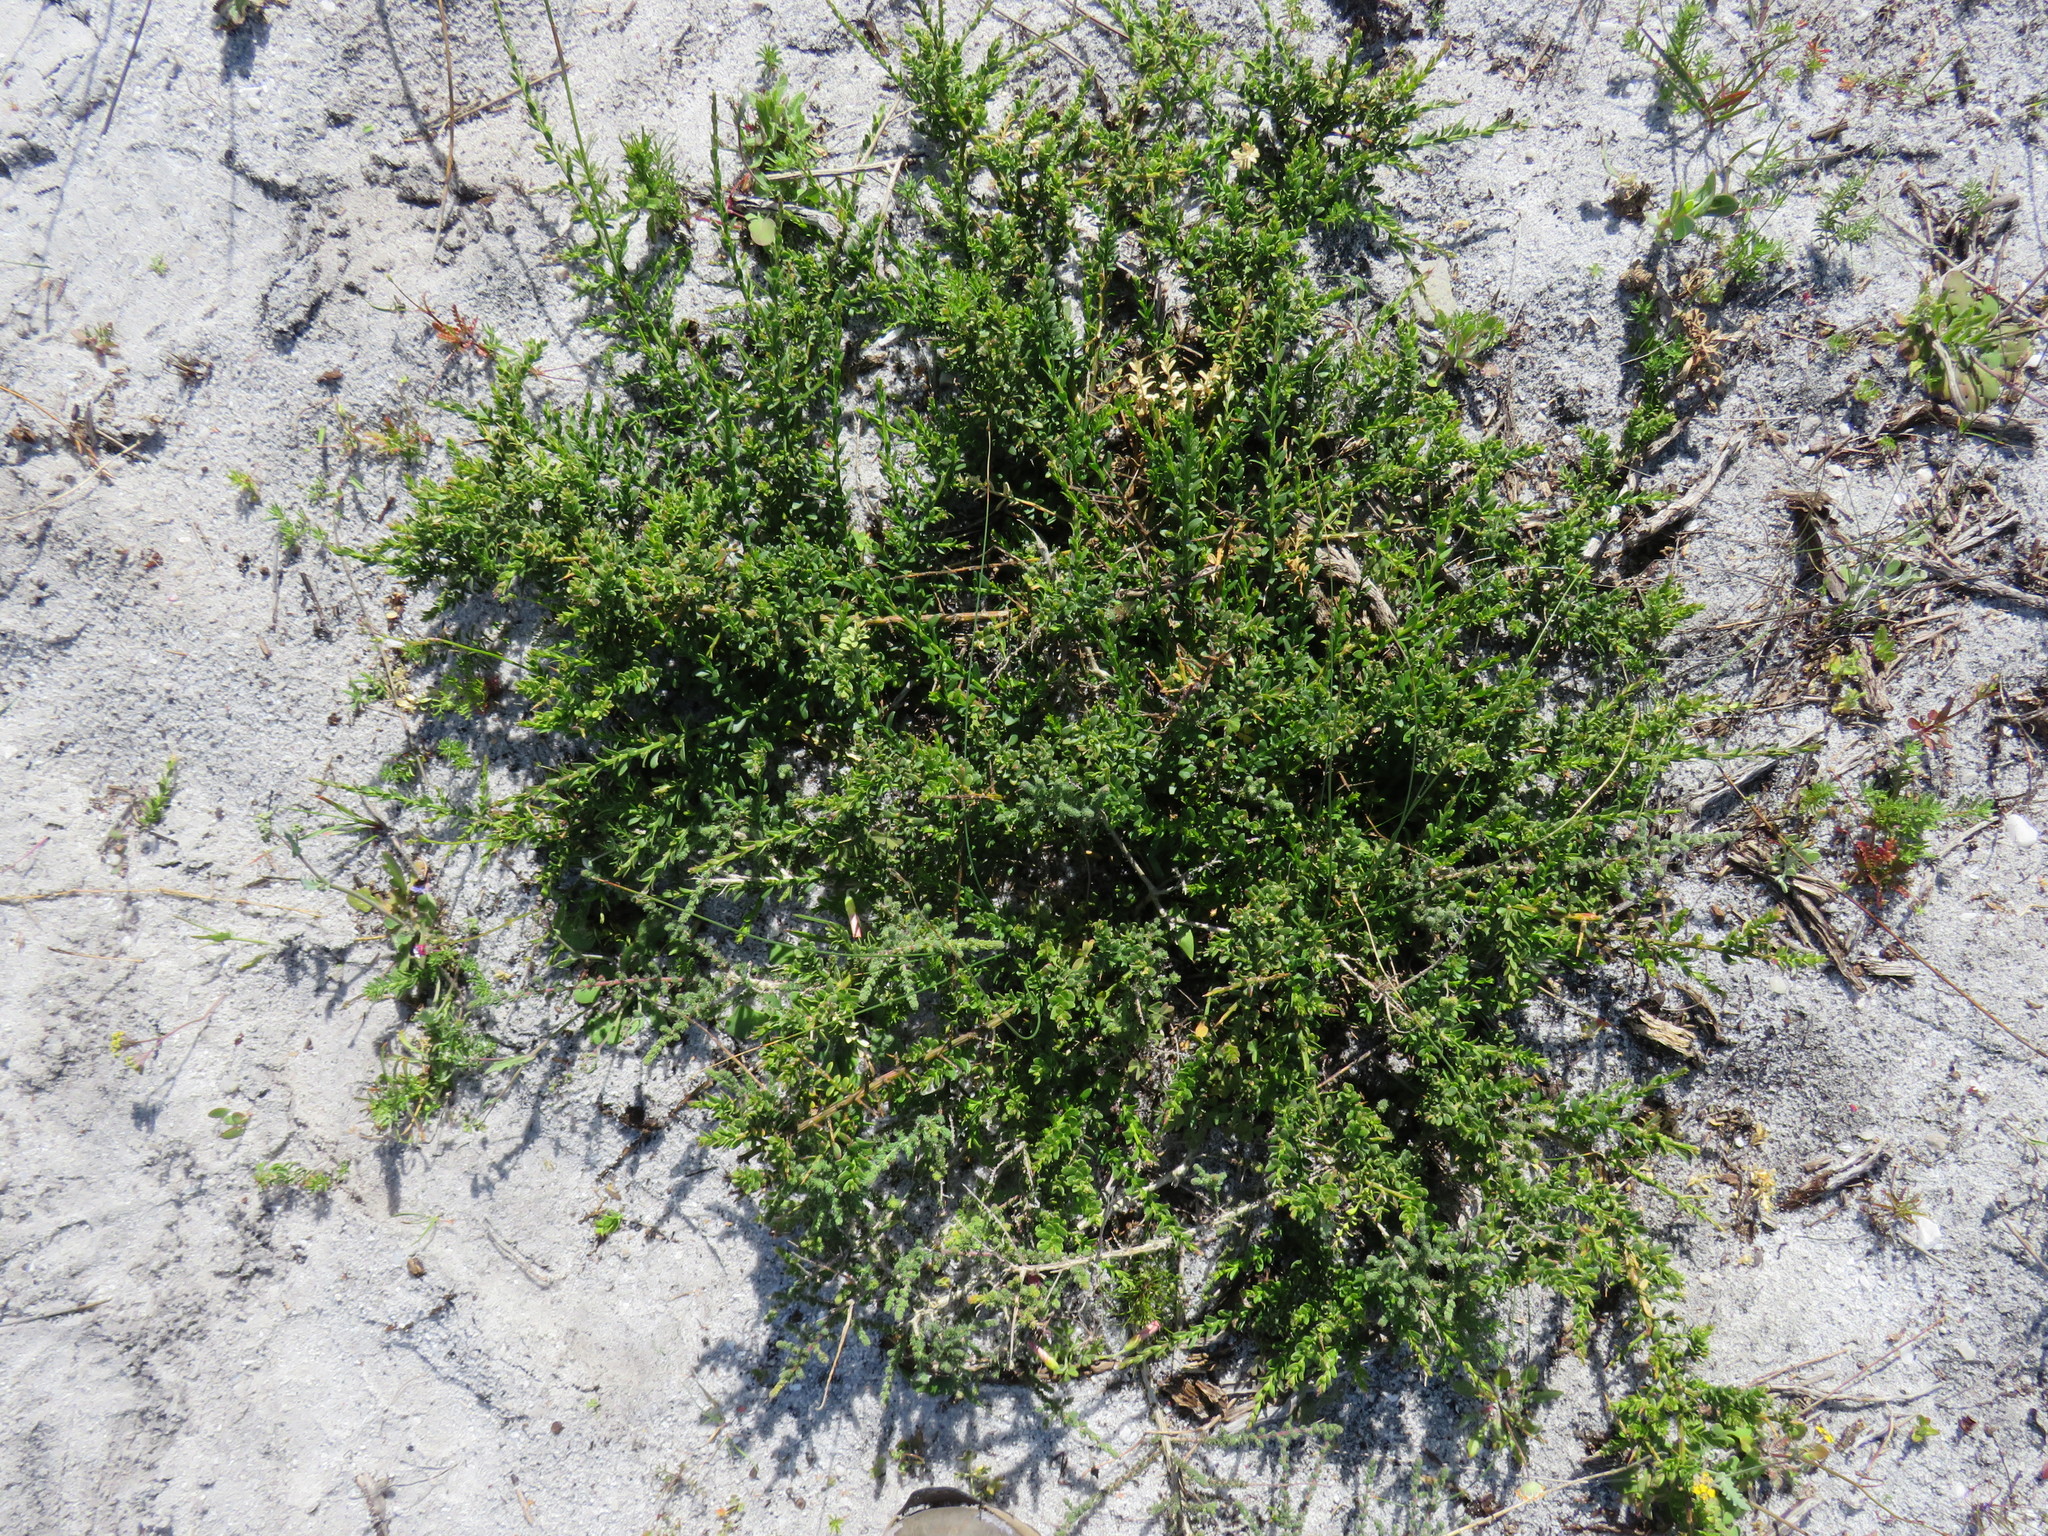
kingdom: Plantae
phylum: Tracheophyta
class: Magnoliopsida
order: Fabales
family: Polygalaceae
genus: Muraltia
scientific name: Muraltia spinosa
